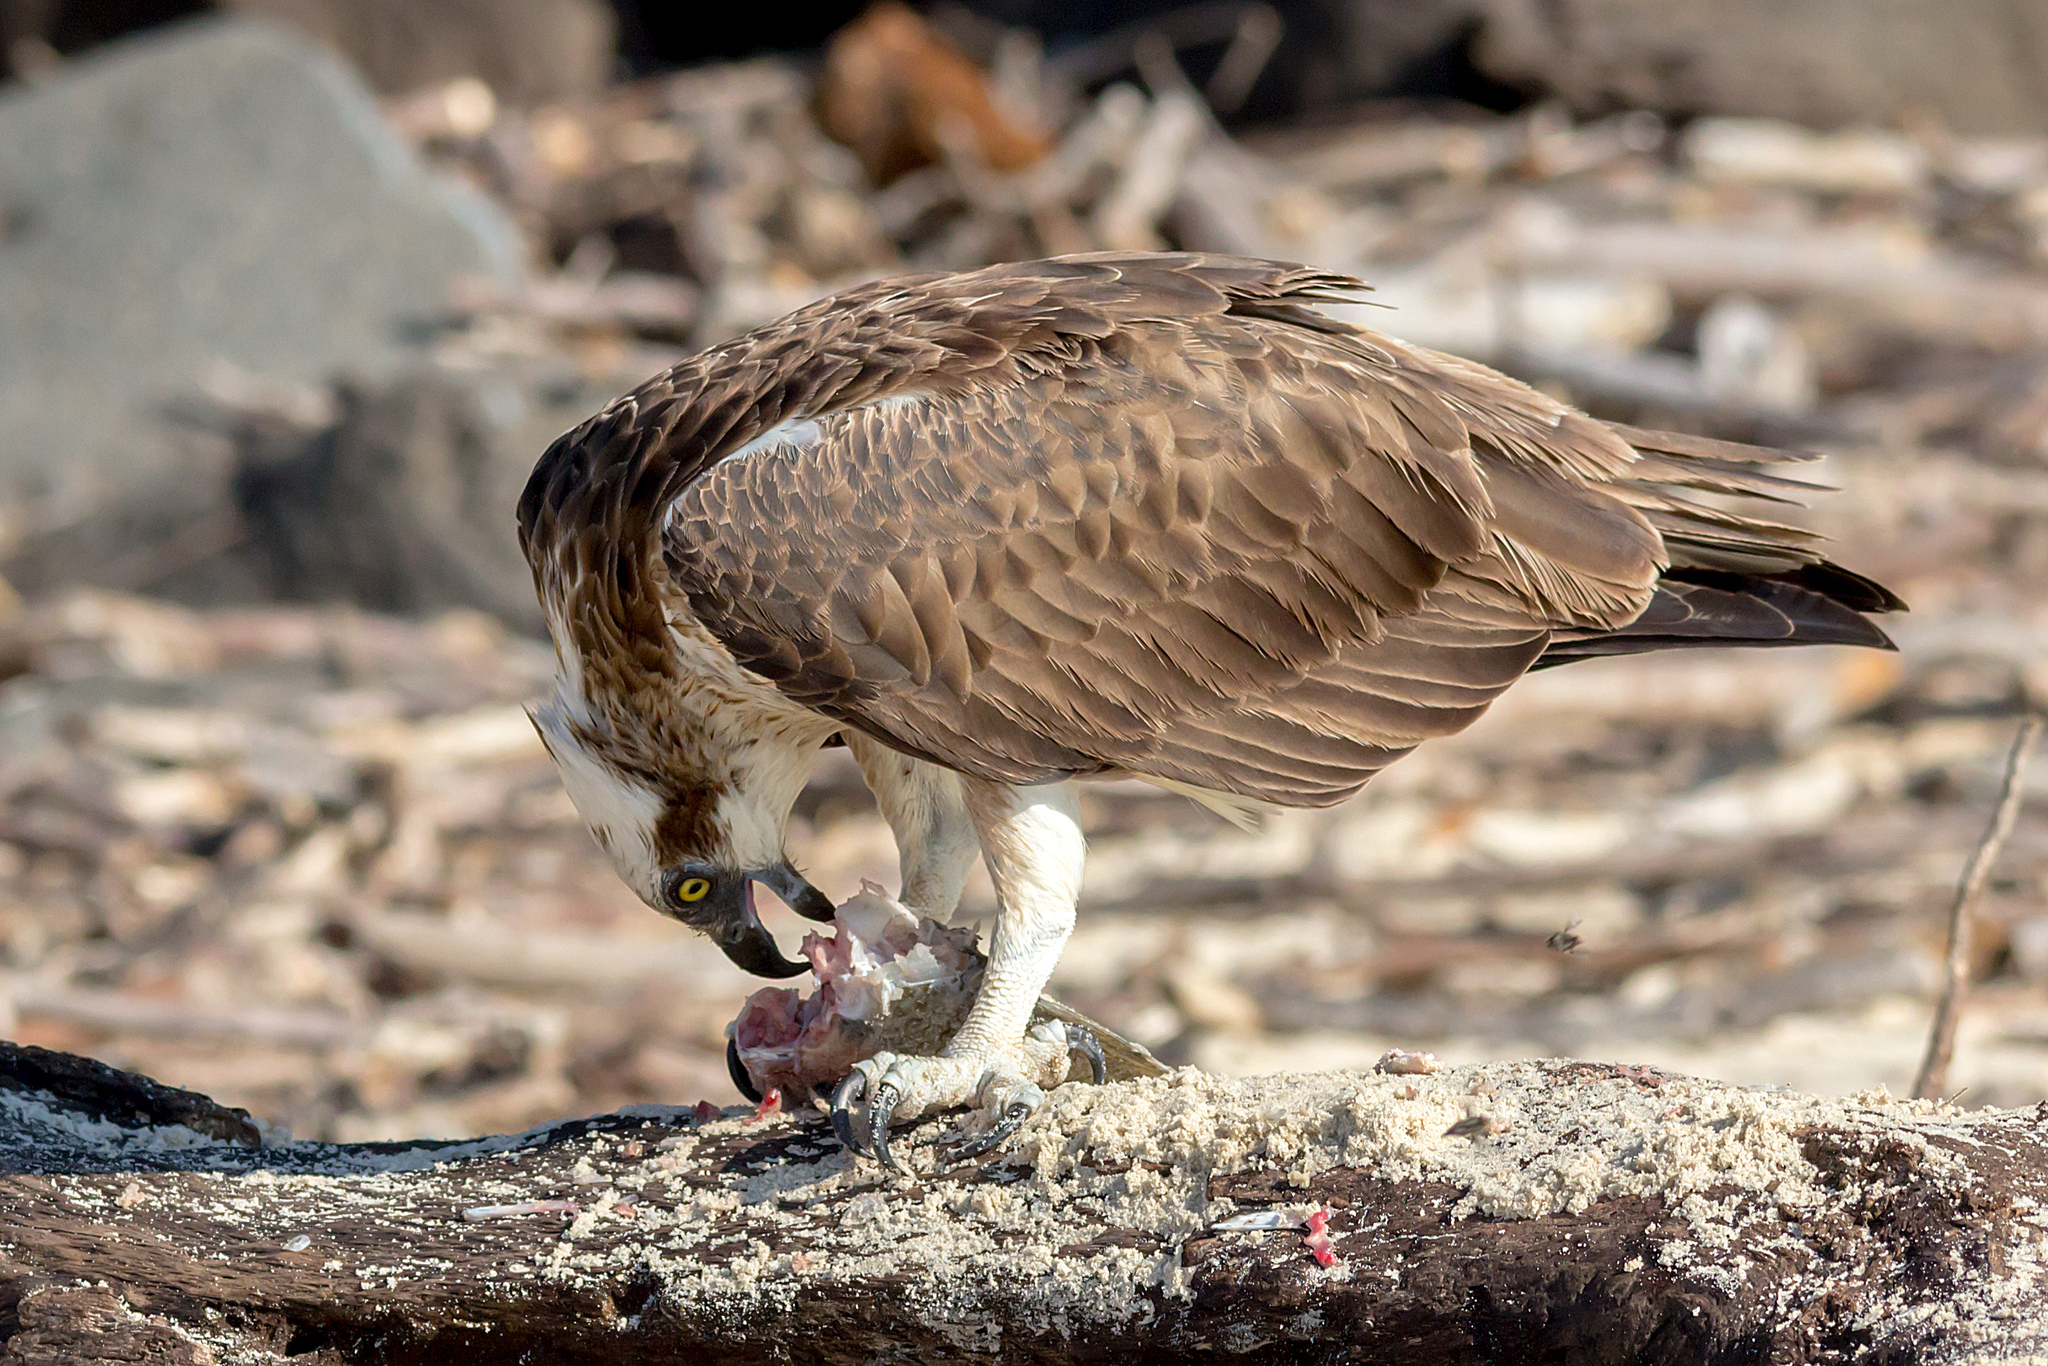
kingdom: Animalia
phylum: Chordata
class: Aves
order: Accipitriformes
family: Pandionidae
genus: Pandion
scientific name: Pandion haliaetus
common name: Osprey
